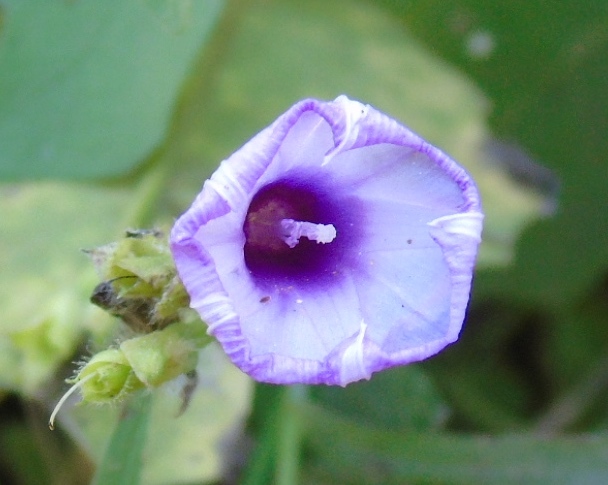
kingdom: Plantae
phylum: Tracheophyta
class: Magnoliopsida
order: Solanales
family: Convolvulaceae
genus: Ipomoea
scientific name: Ipomoea triloba
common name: Little-bell
